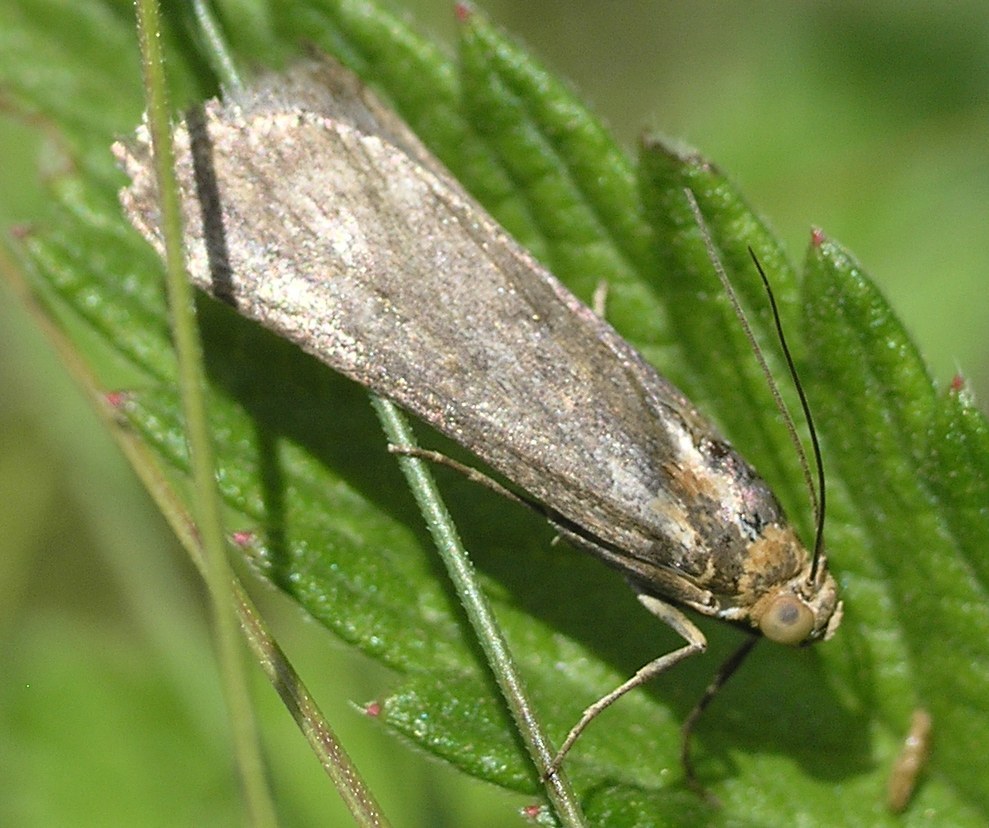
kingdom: Animalia
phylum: Arthropoda
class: Insecta
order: Lepidoptera
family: Pyralidae
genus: Pterothrixidia
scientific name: Pterothrixidia rufella
